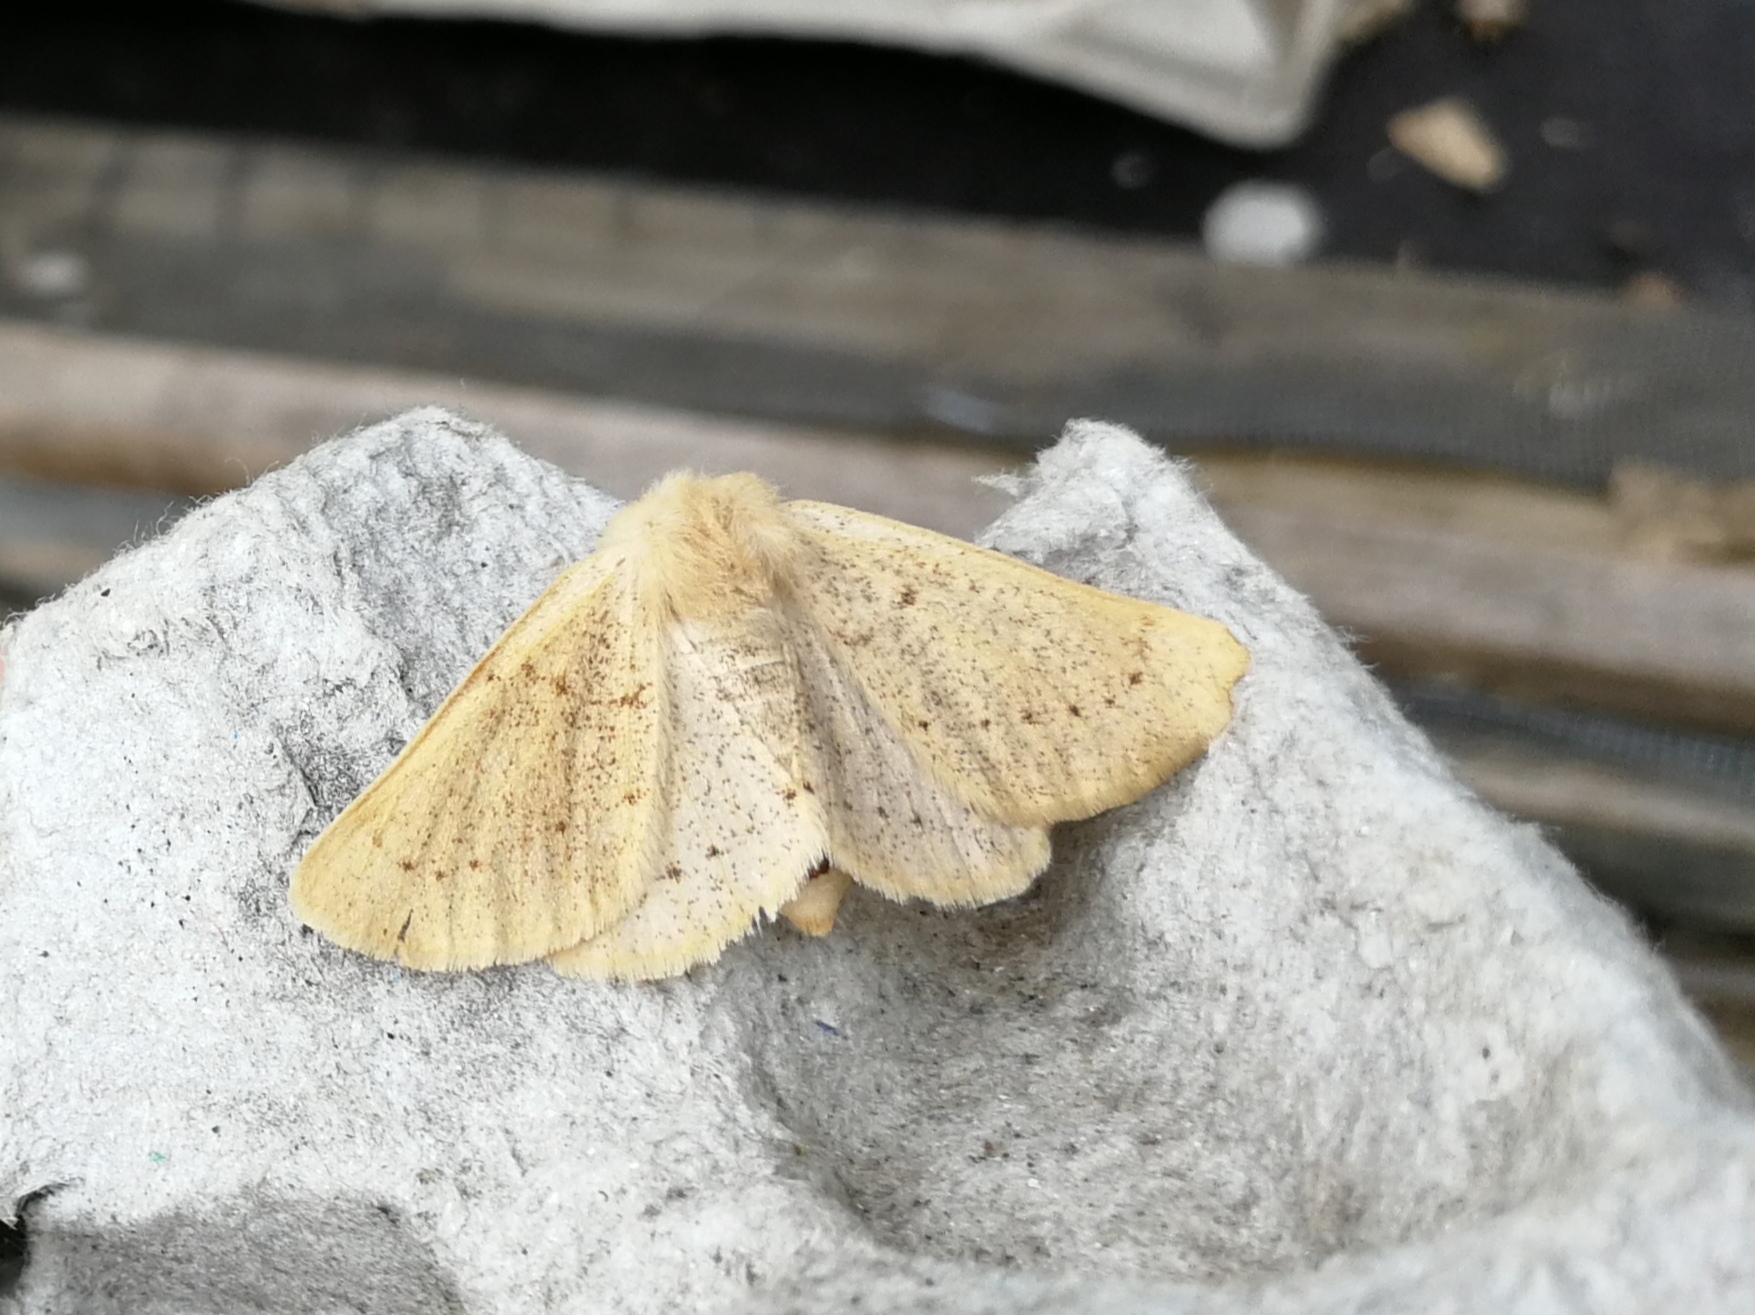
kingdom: Animalia
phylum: Arthropoda
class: Insecta
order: Lepidoptera
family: Geometridae
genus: Dyscia
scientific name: Dyscia lentiscaria
